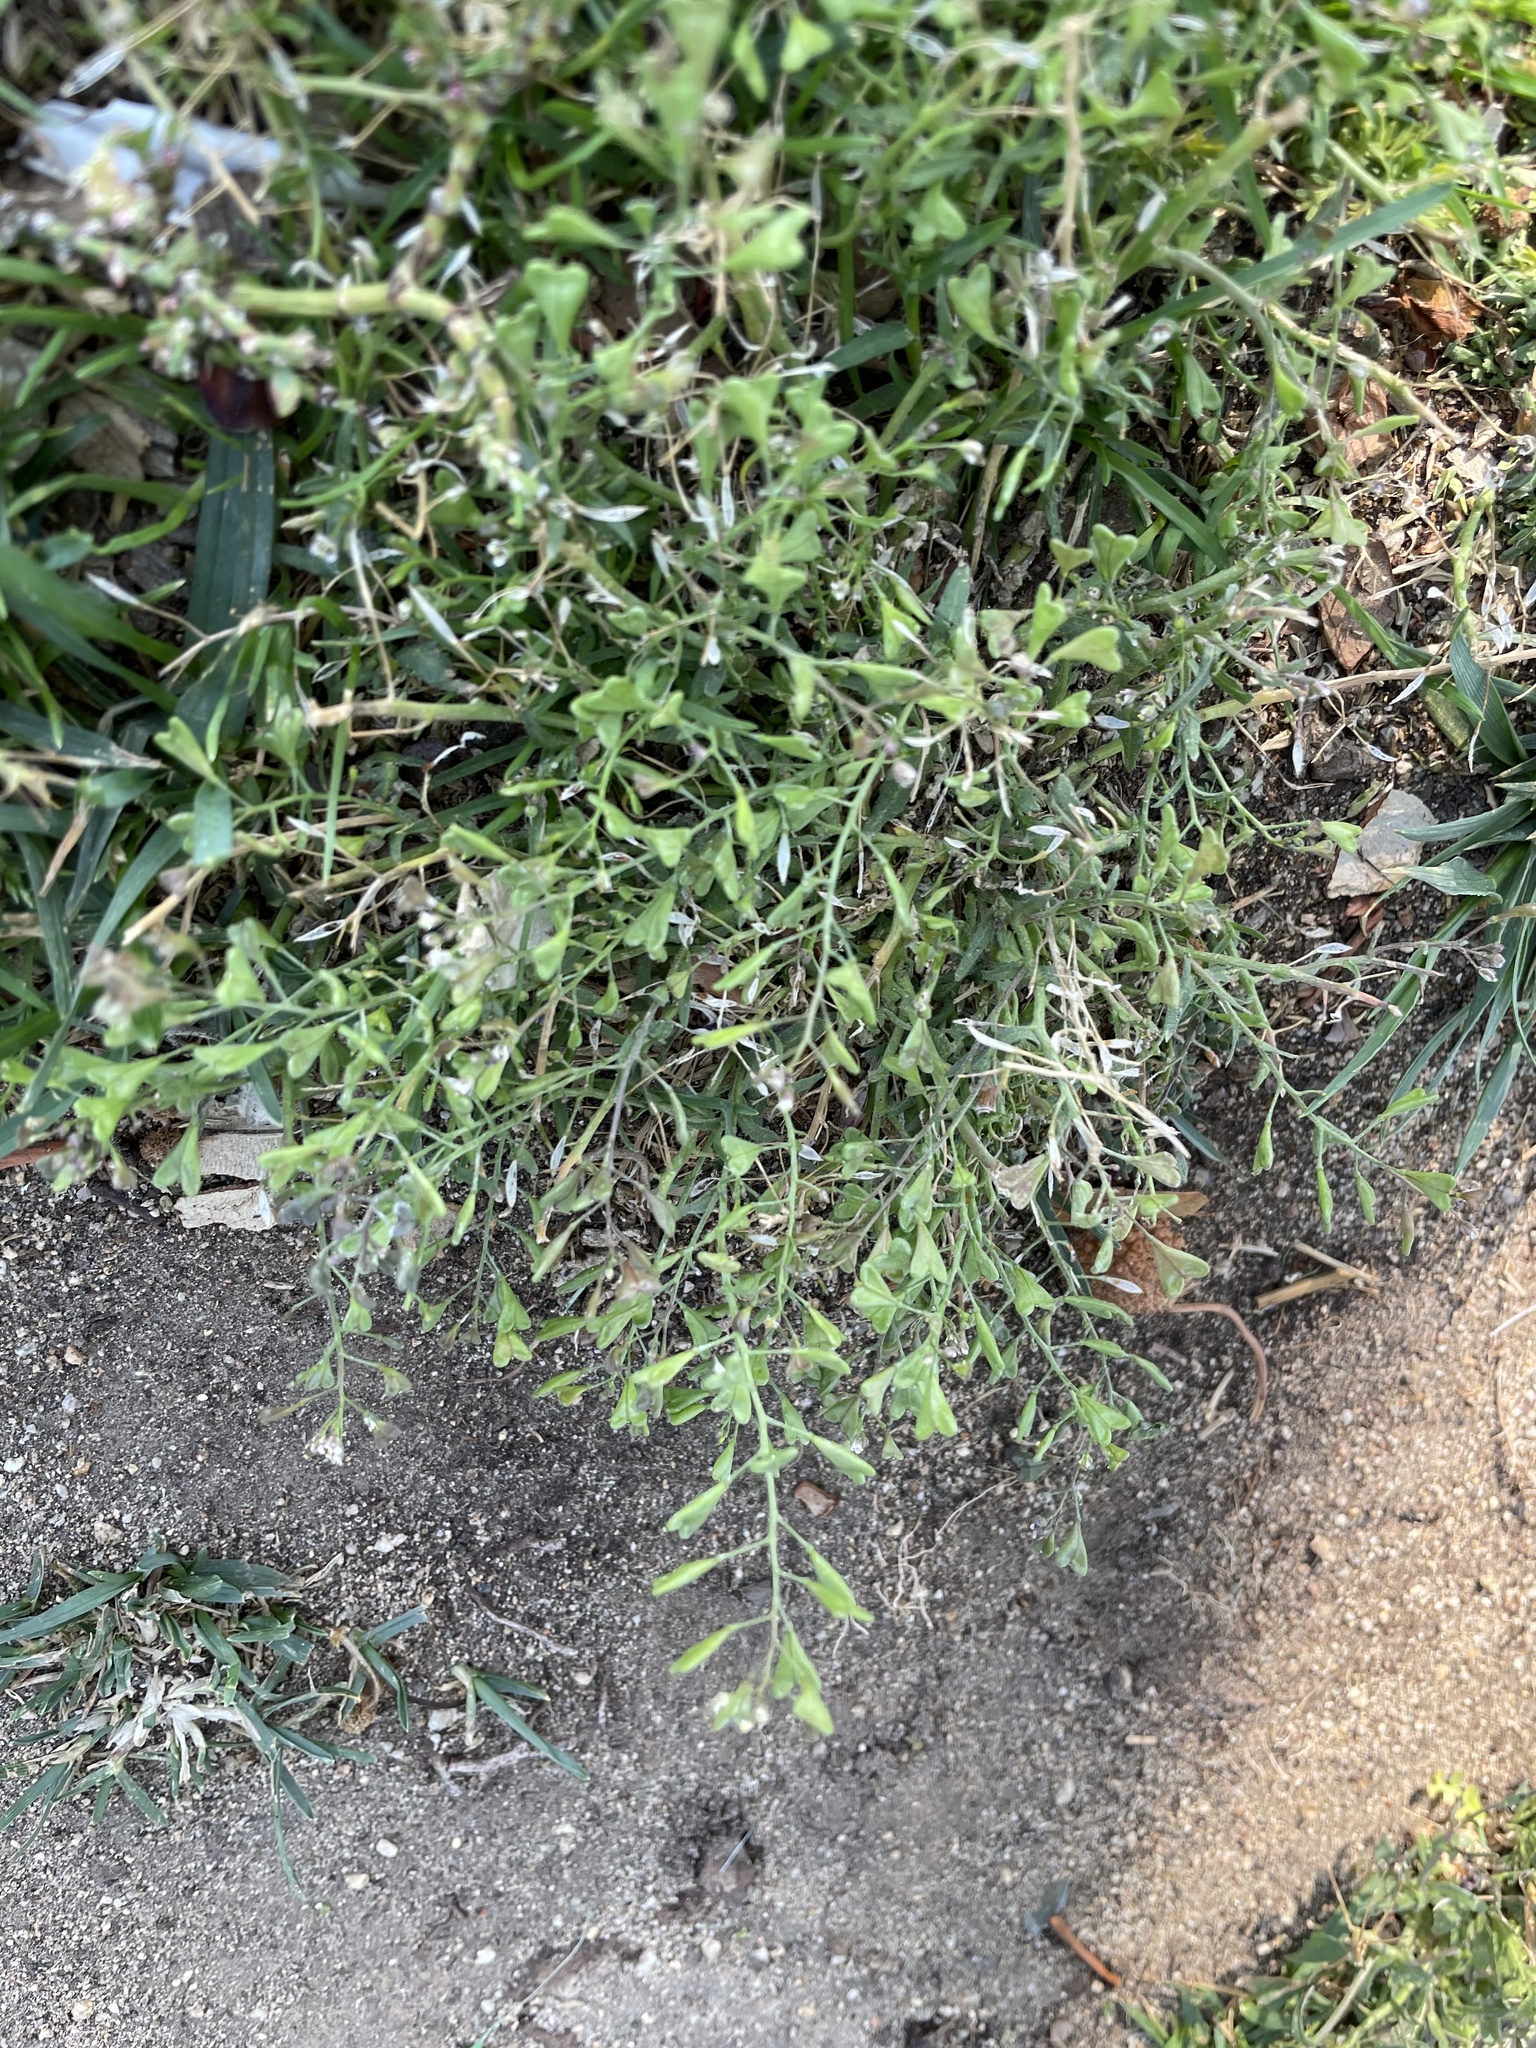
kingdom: Plantae
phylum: Tracheophyta
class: Magnoliopsida
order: Brassicales
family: Brassicaceae
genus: Capsella
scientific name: Capsella bursa-pastoris
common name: Shepherd's purse
